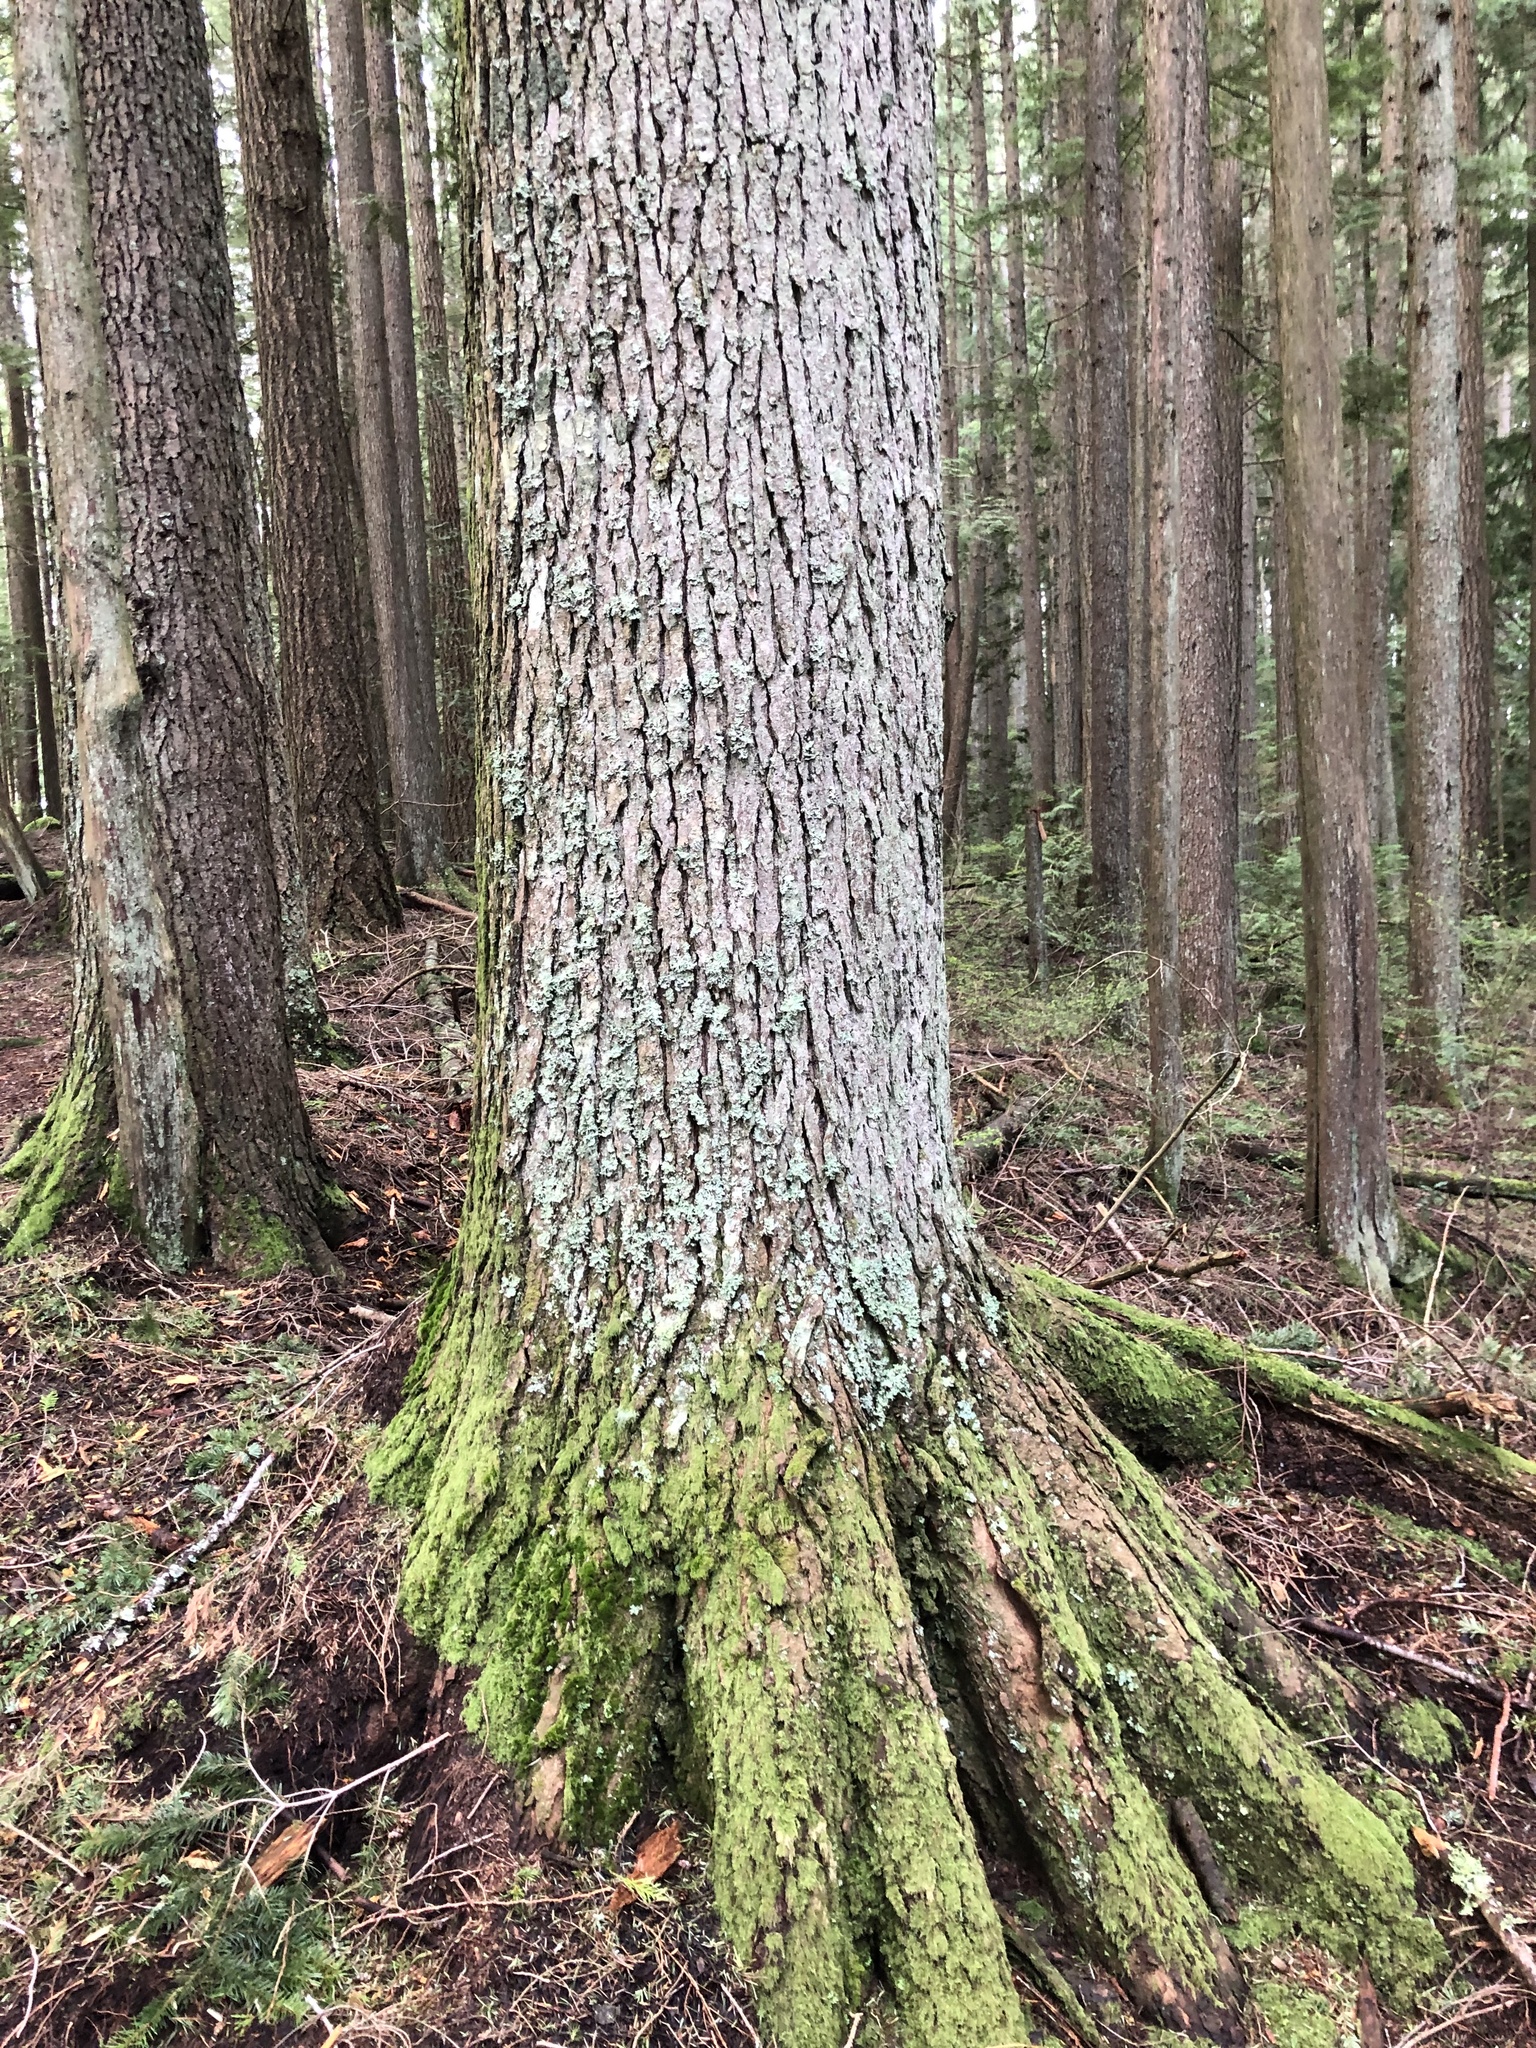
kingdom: Plantae
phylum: Tracheophyta
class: Pinopsida
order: Pinales
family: Pinaceae
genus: Tsuga
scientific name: Tsuga heterophylla
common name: Western hemlock
